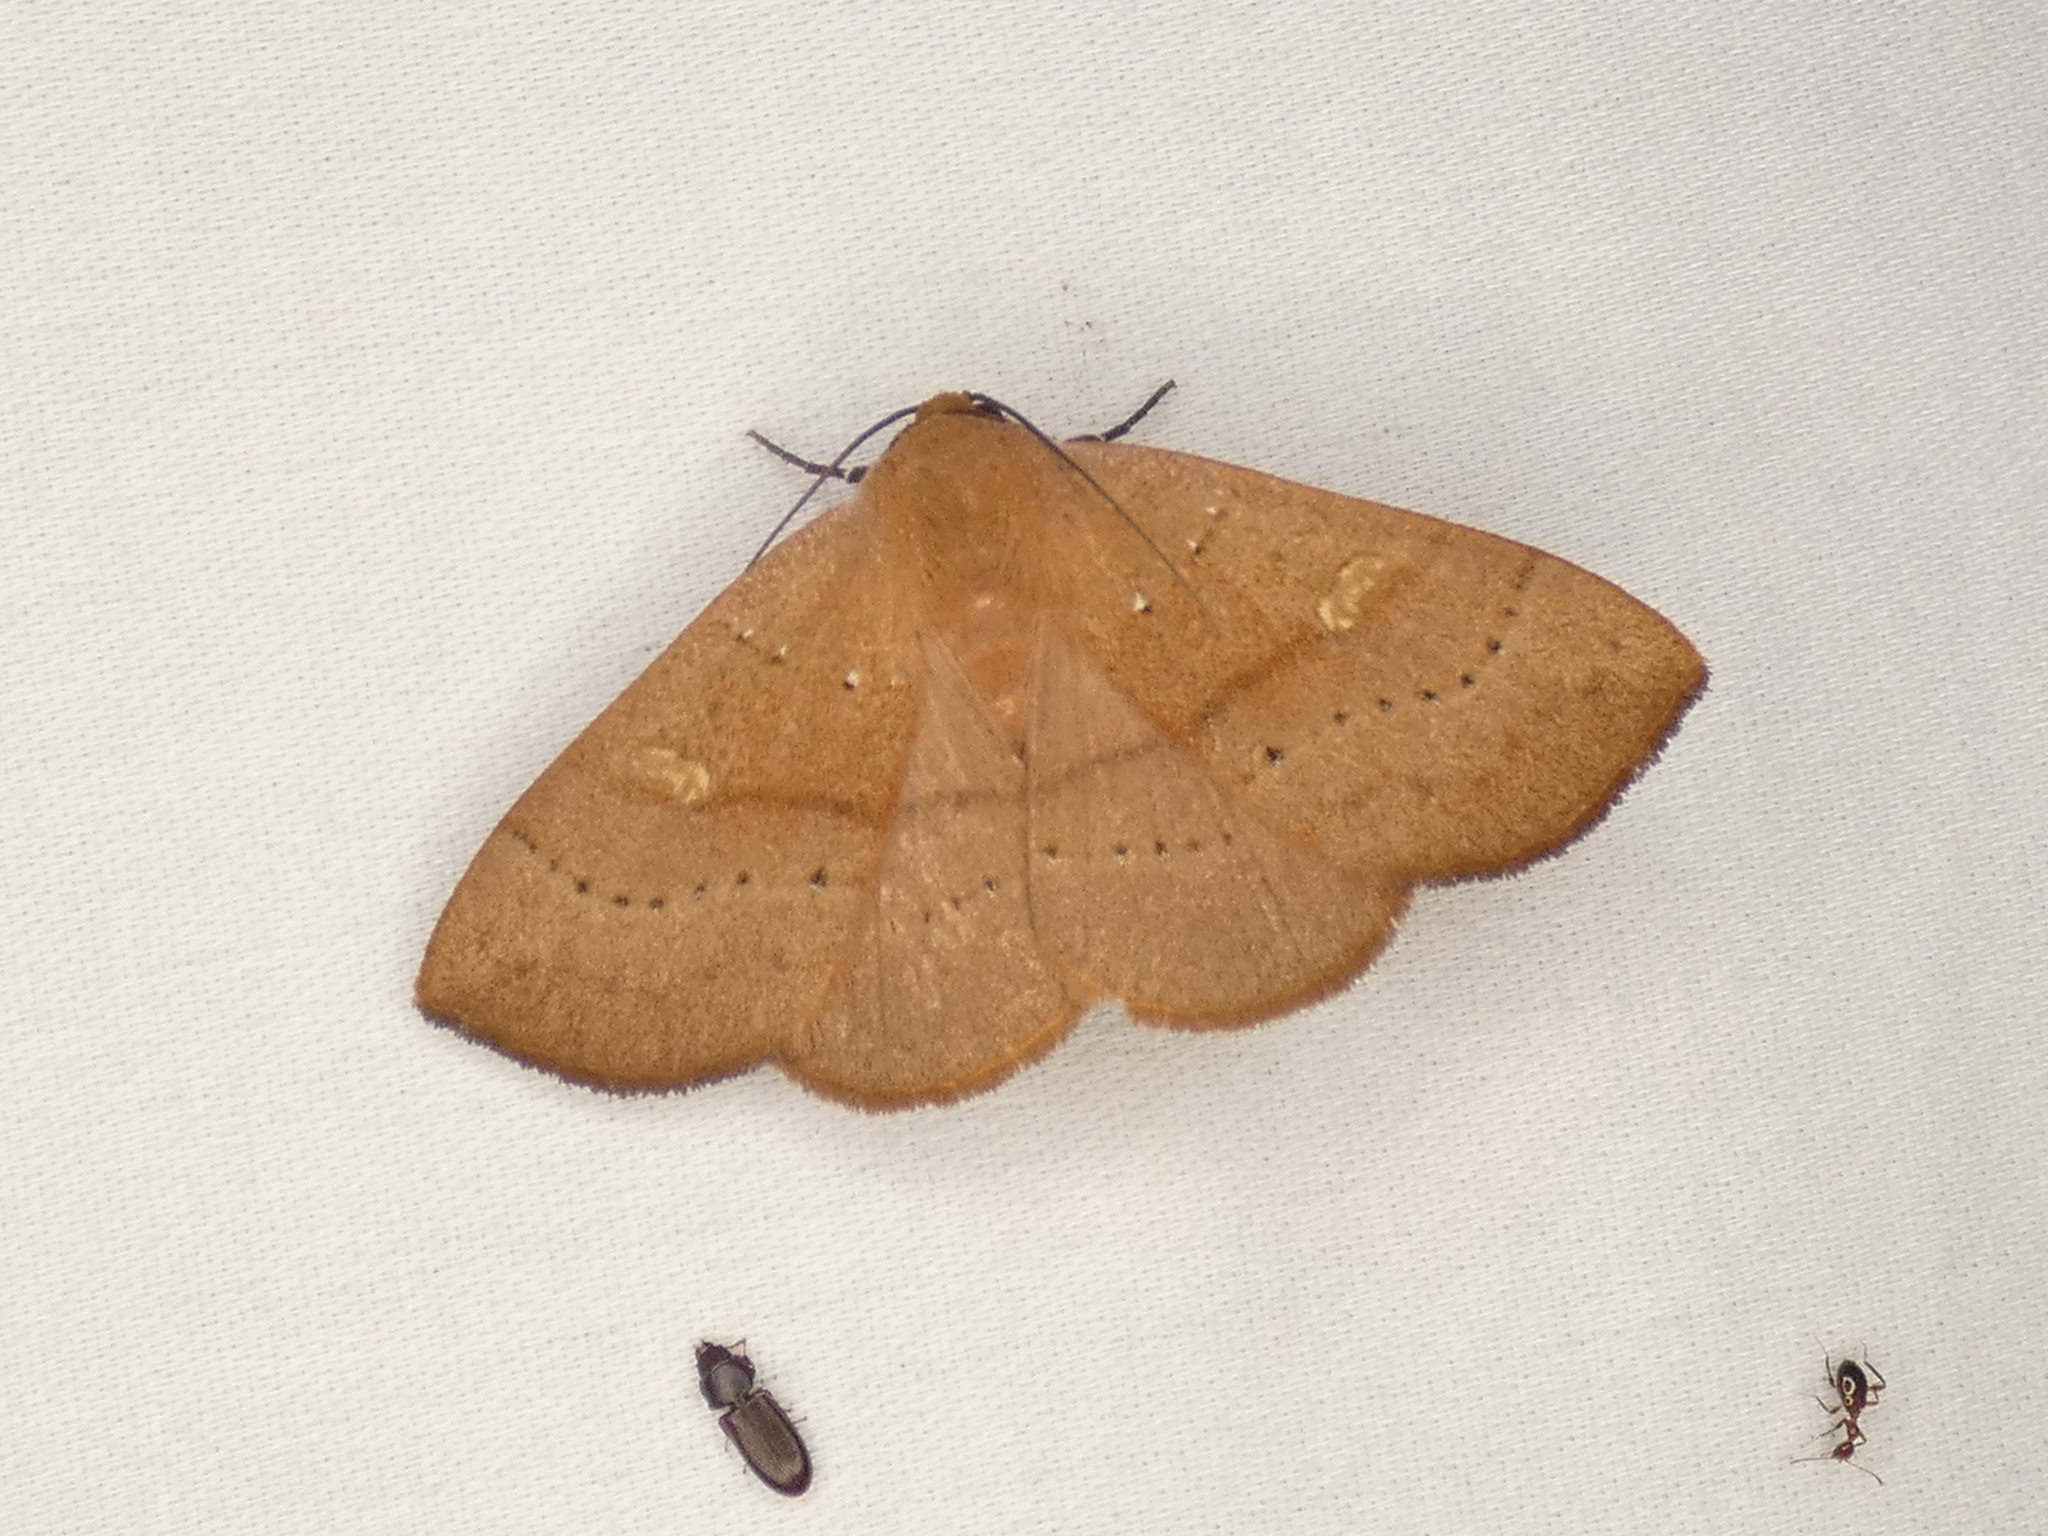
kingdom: Animalia
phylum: Arthropoda
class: Insecta
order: Lepidoptera
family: Erebidae
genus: Panopoda
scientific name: Panopoda repanda
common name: Orange panopoda
